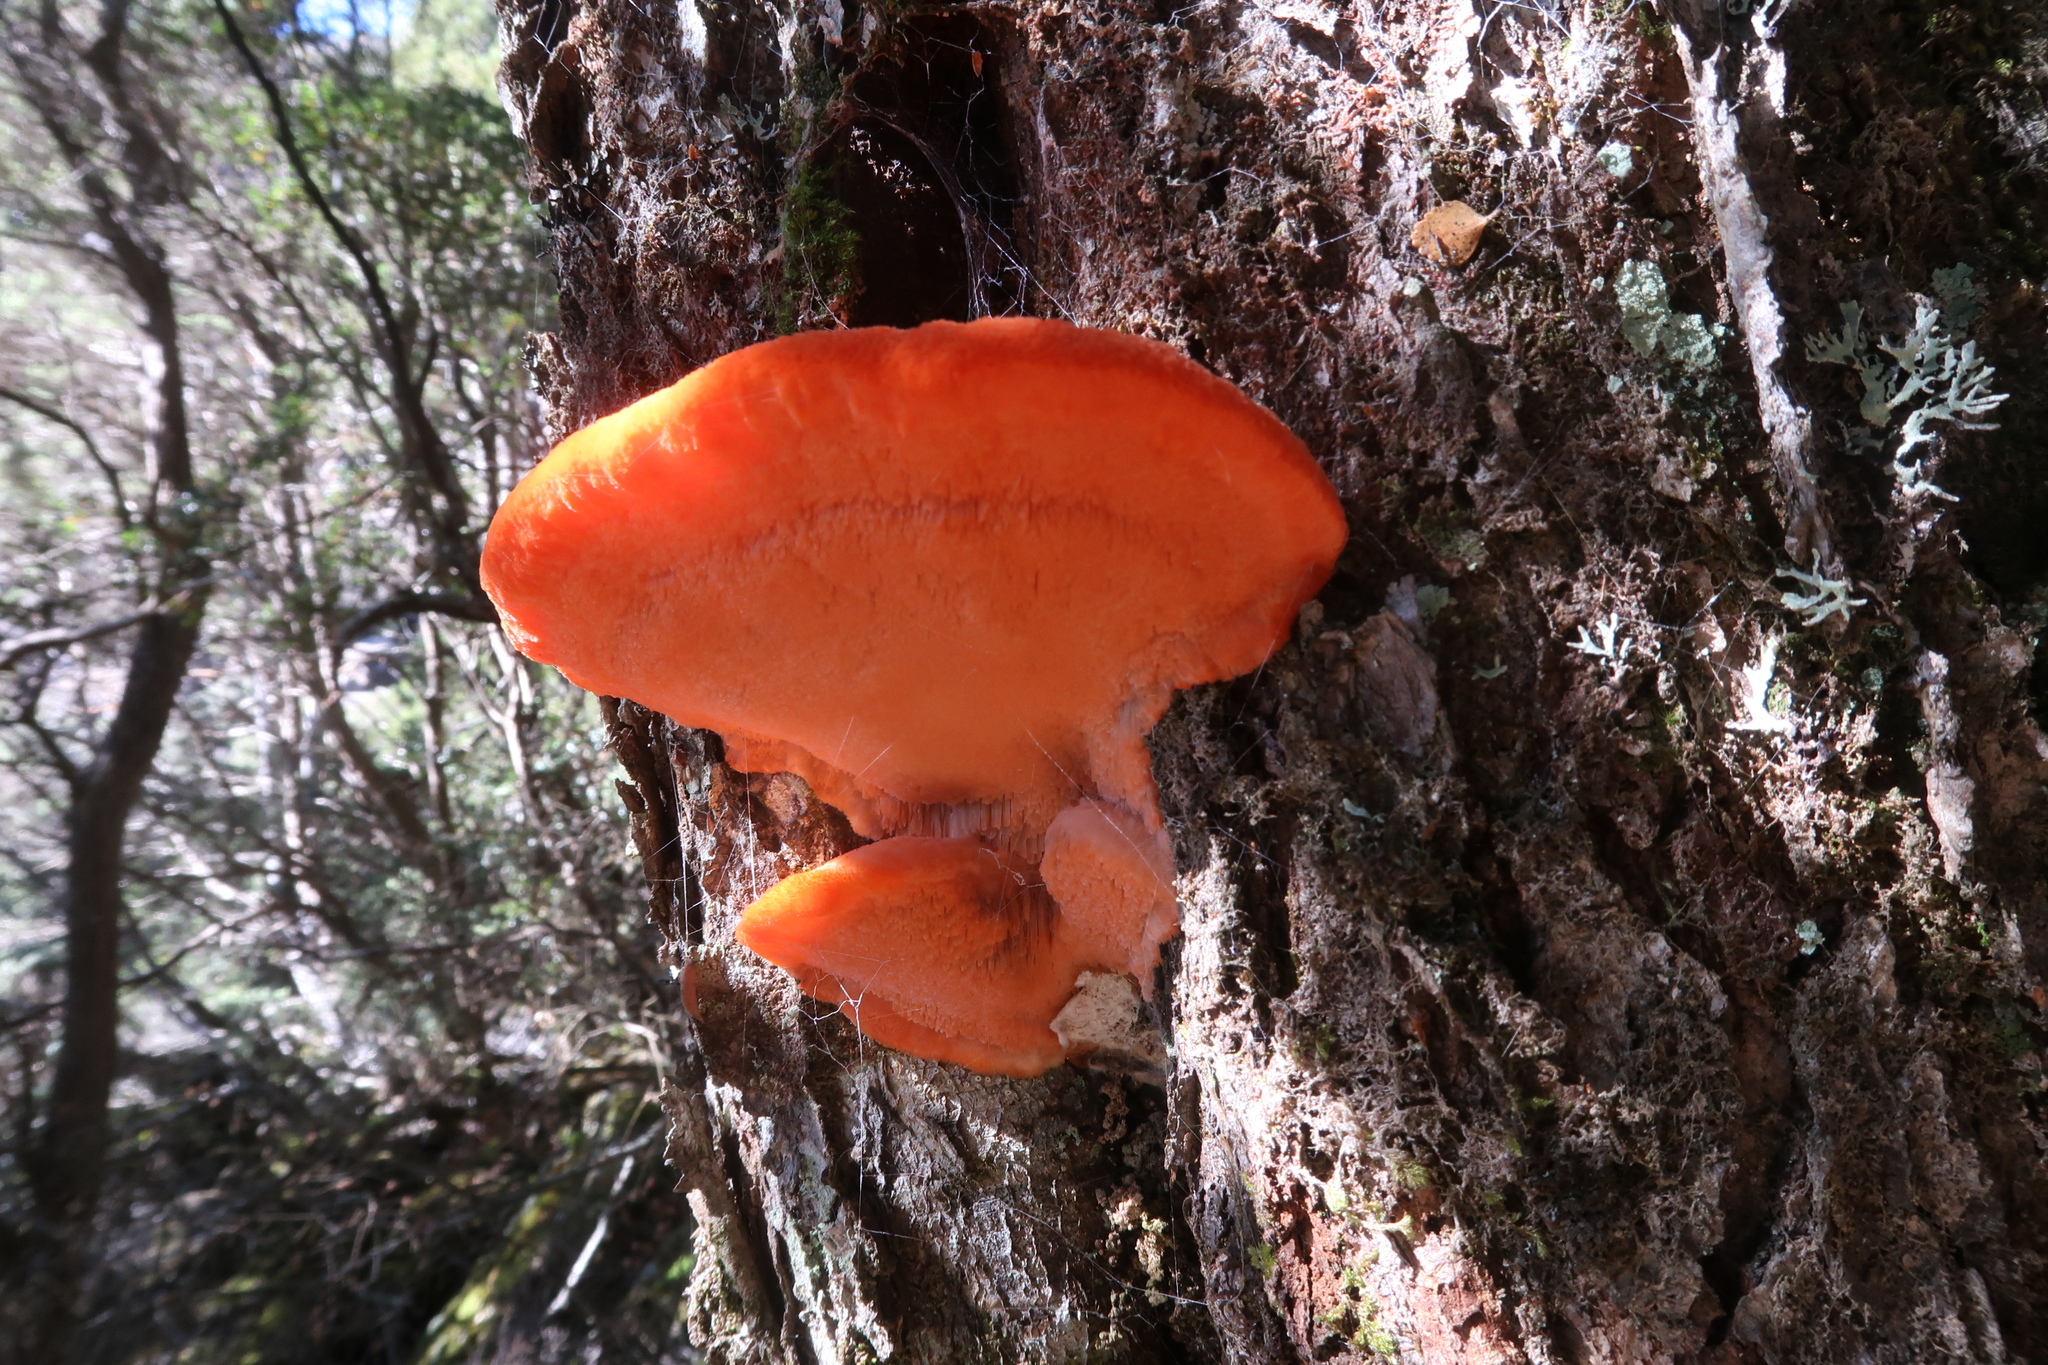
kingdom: Fungi
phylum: Basidiomycota
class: Agaricomycetes
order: Polyporales
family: Incrustoporiaceae
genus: Tyromyces
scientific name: Tyromyces pulcherrimus
